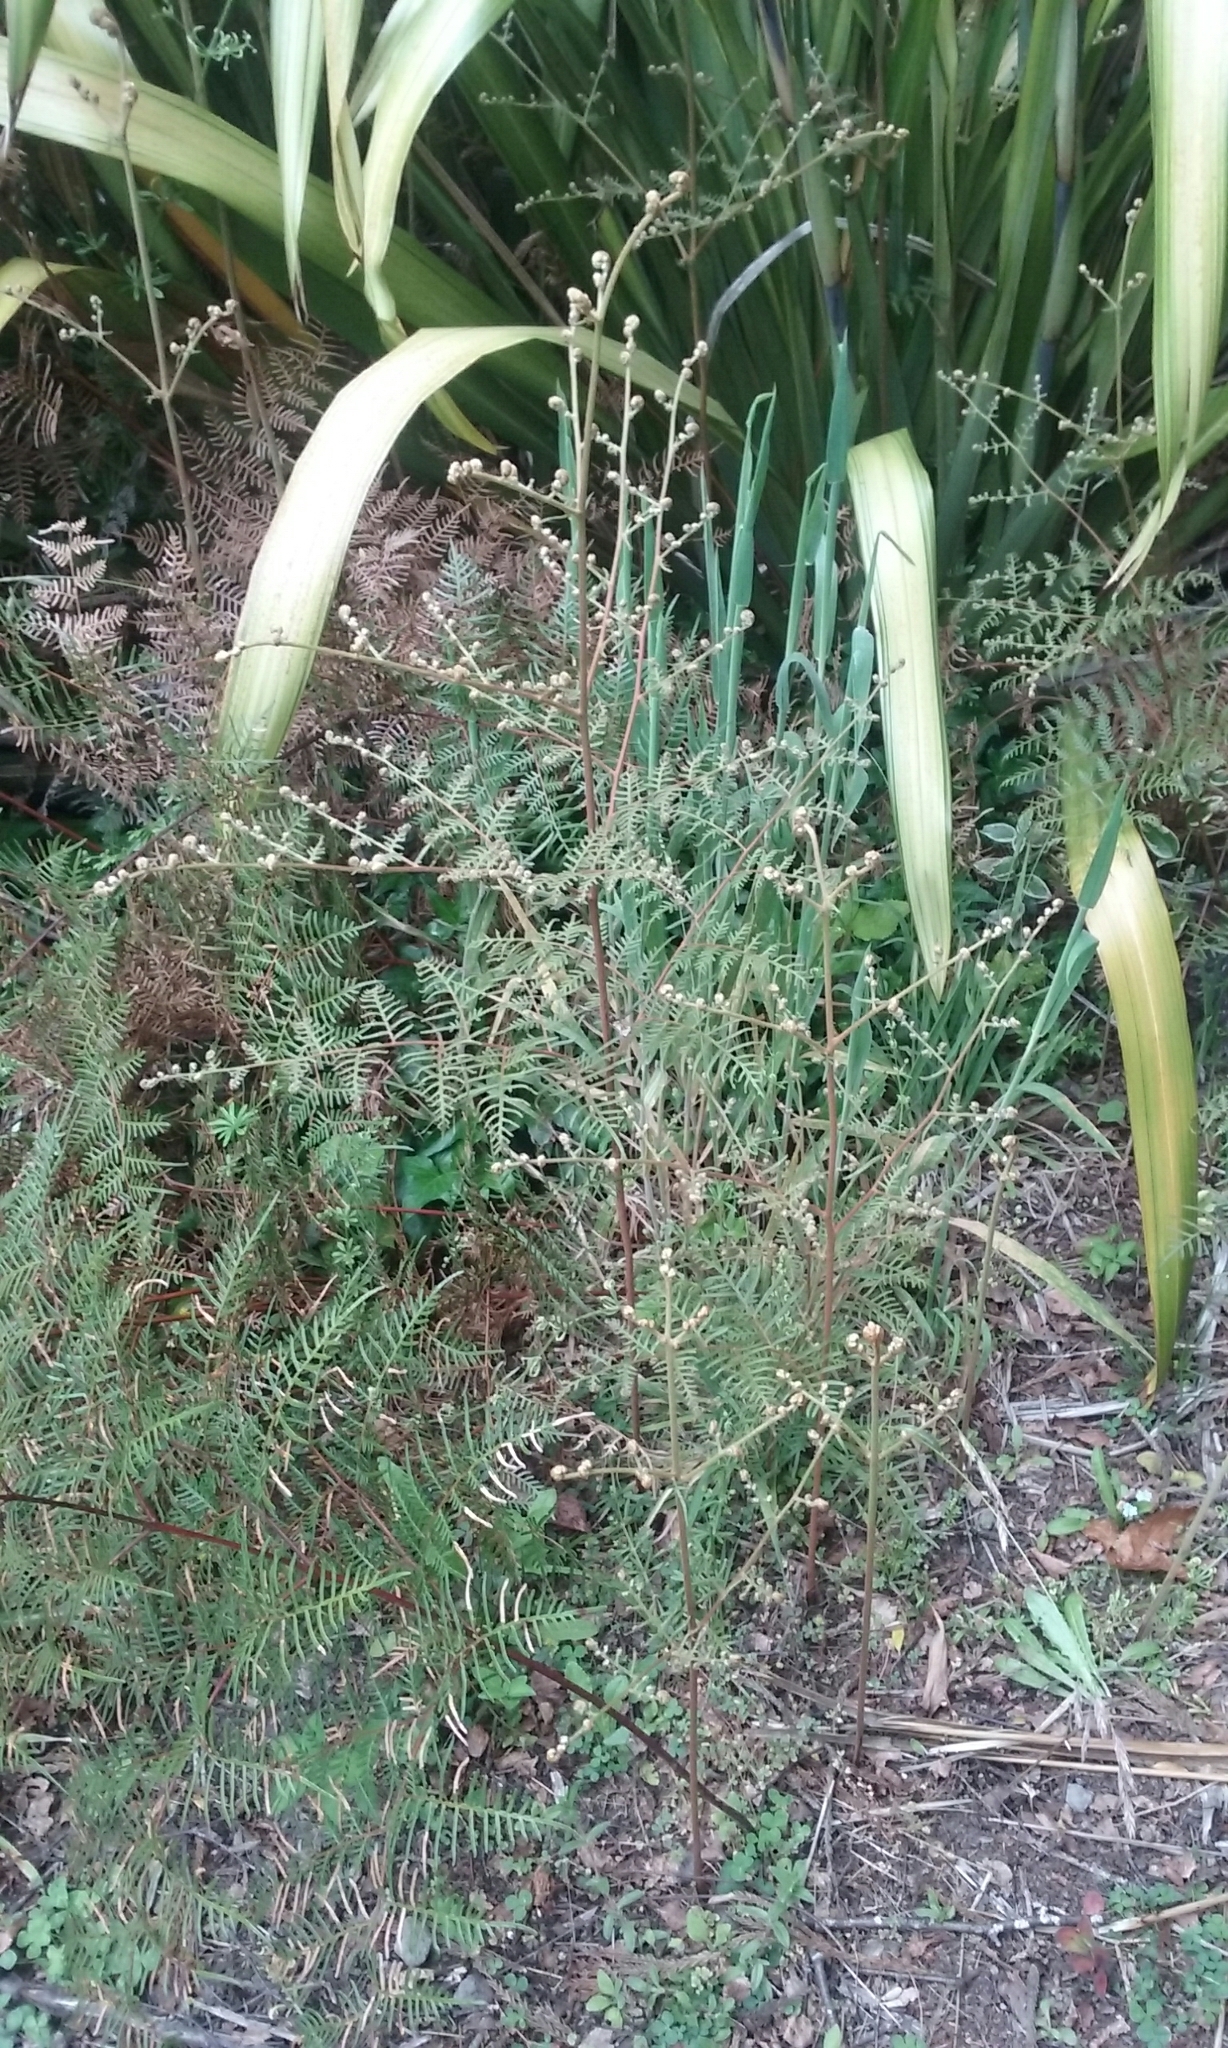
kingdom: Plantae
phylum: Tracheophyta
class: Polypodiopsida
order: Polypodiales
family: Dennstaedtiaceae
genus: Pteridium
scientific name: Pteridium esculentum
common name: Bracken fern
